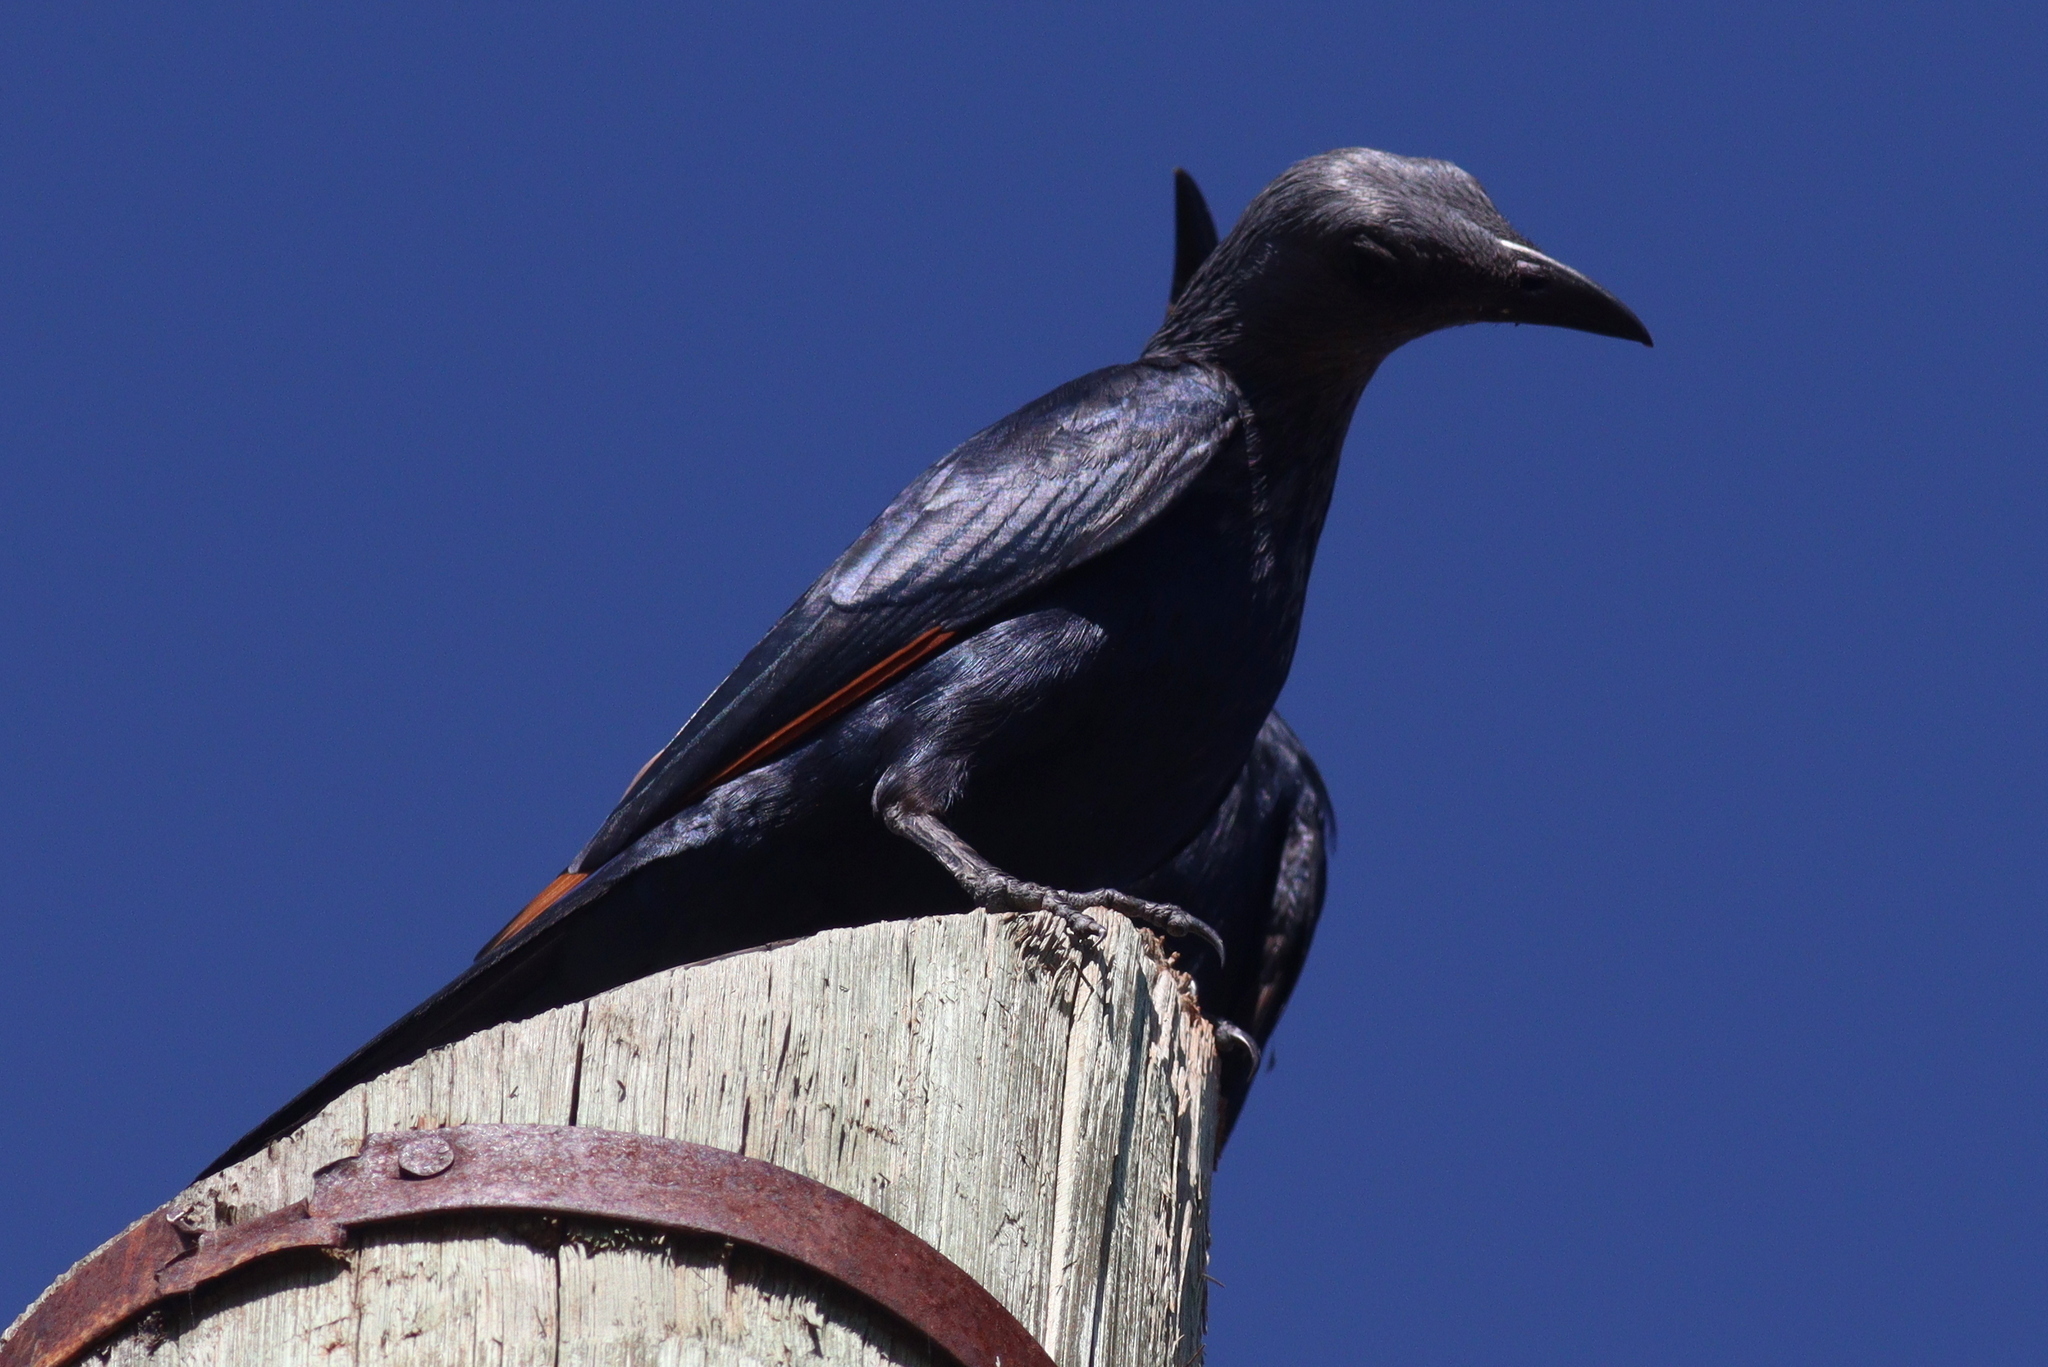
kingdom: Animalia
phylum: Chordata
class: Aves
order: Passeriformes
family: Sturnidae
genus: Onychognathus
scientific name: Onychognathus morio
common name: Red-winged starling
